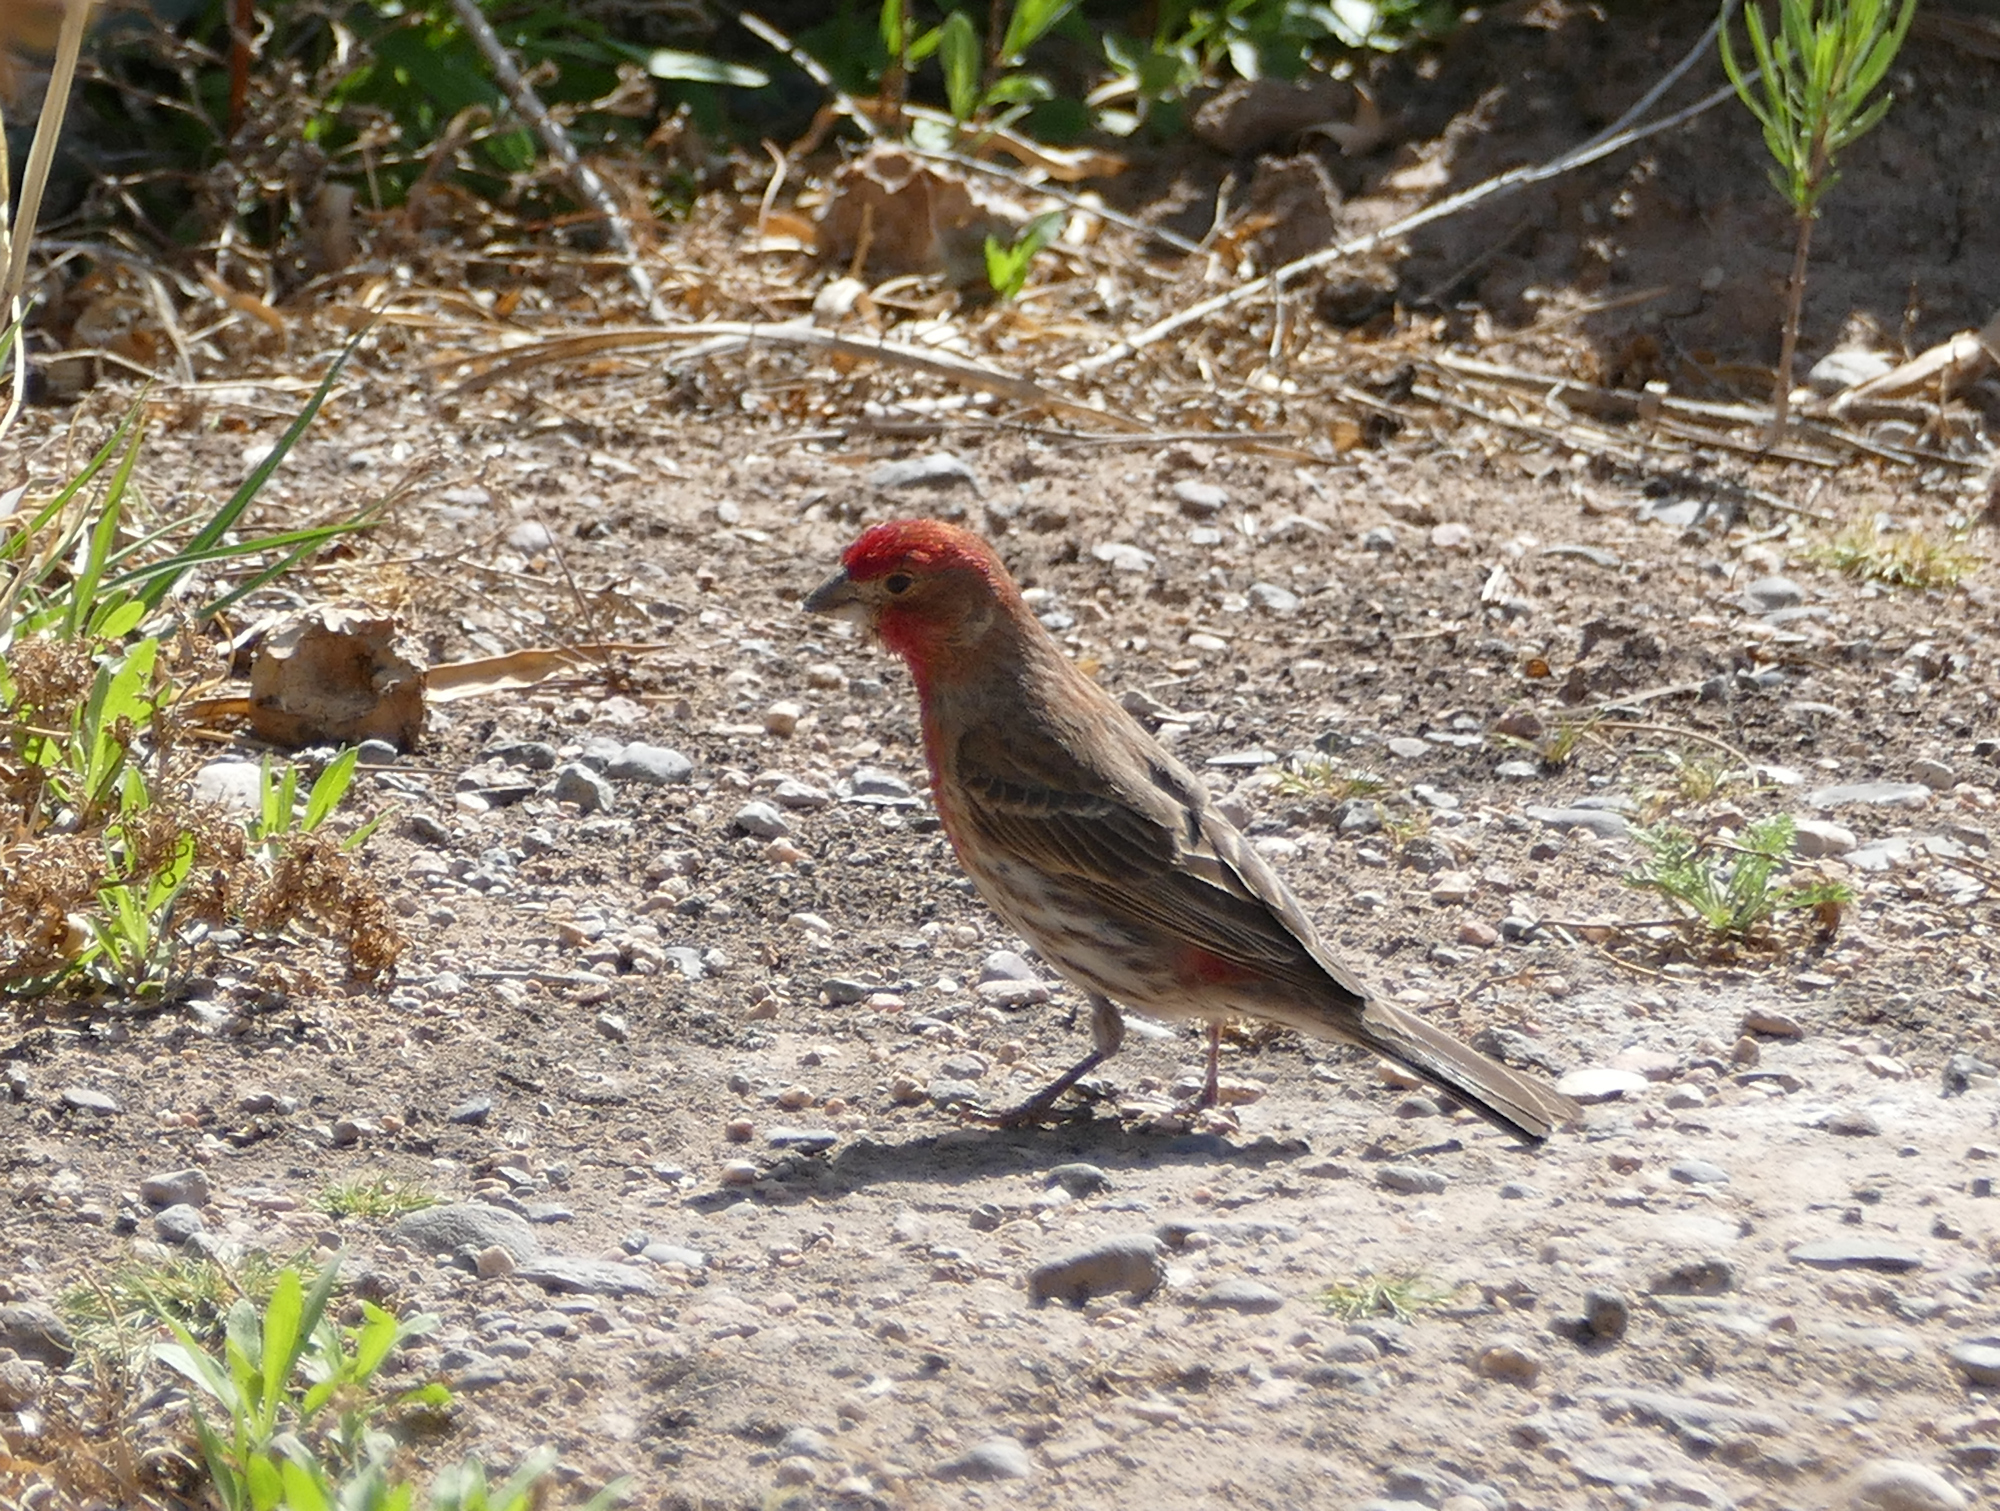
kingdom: Animalia
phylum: Chordata
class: Aves
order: Passeriformes
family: Fringillidae
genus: Haemorhous
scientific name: Haemorhous mexicanus
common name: House finch
